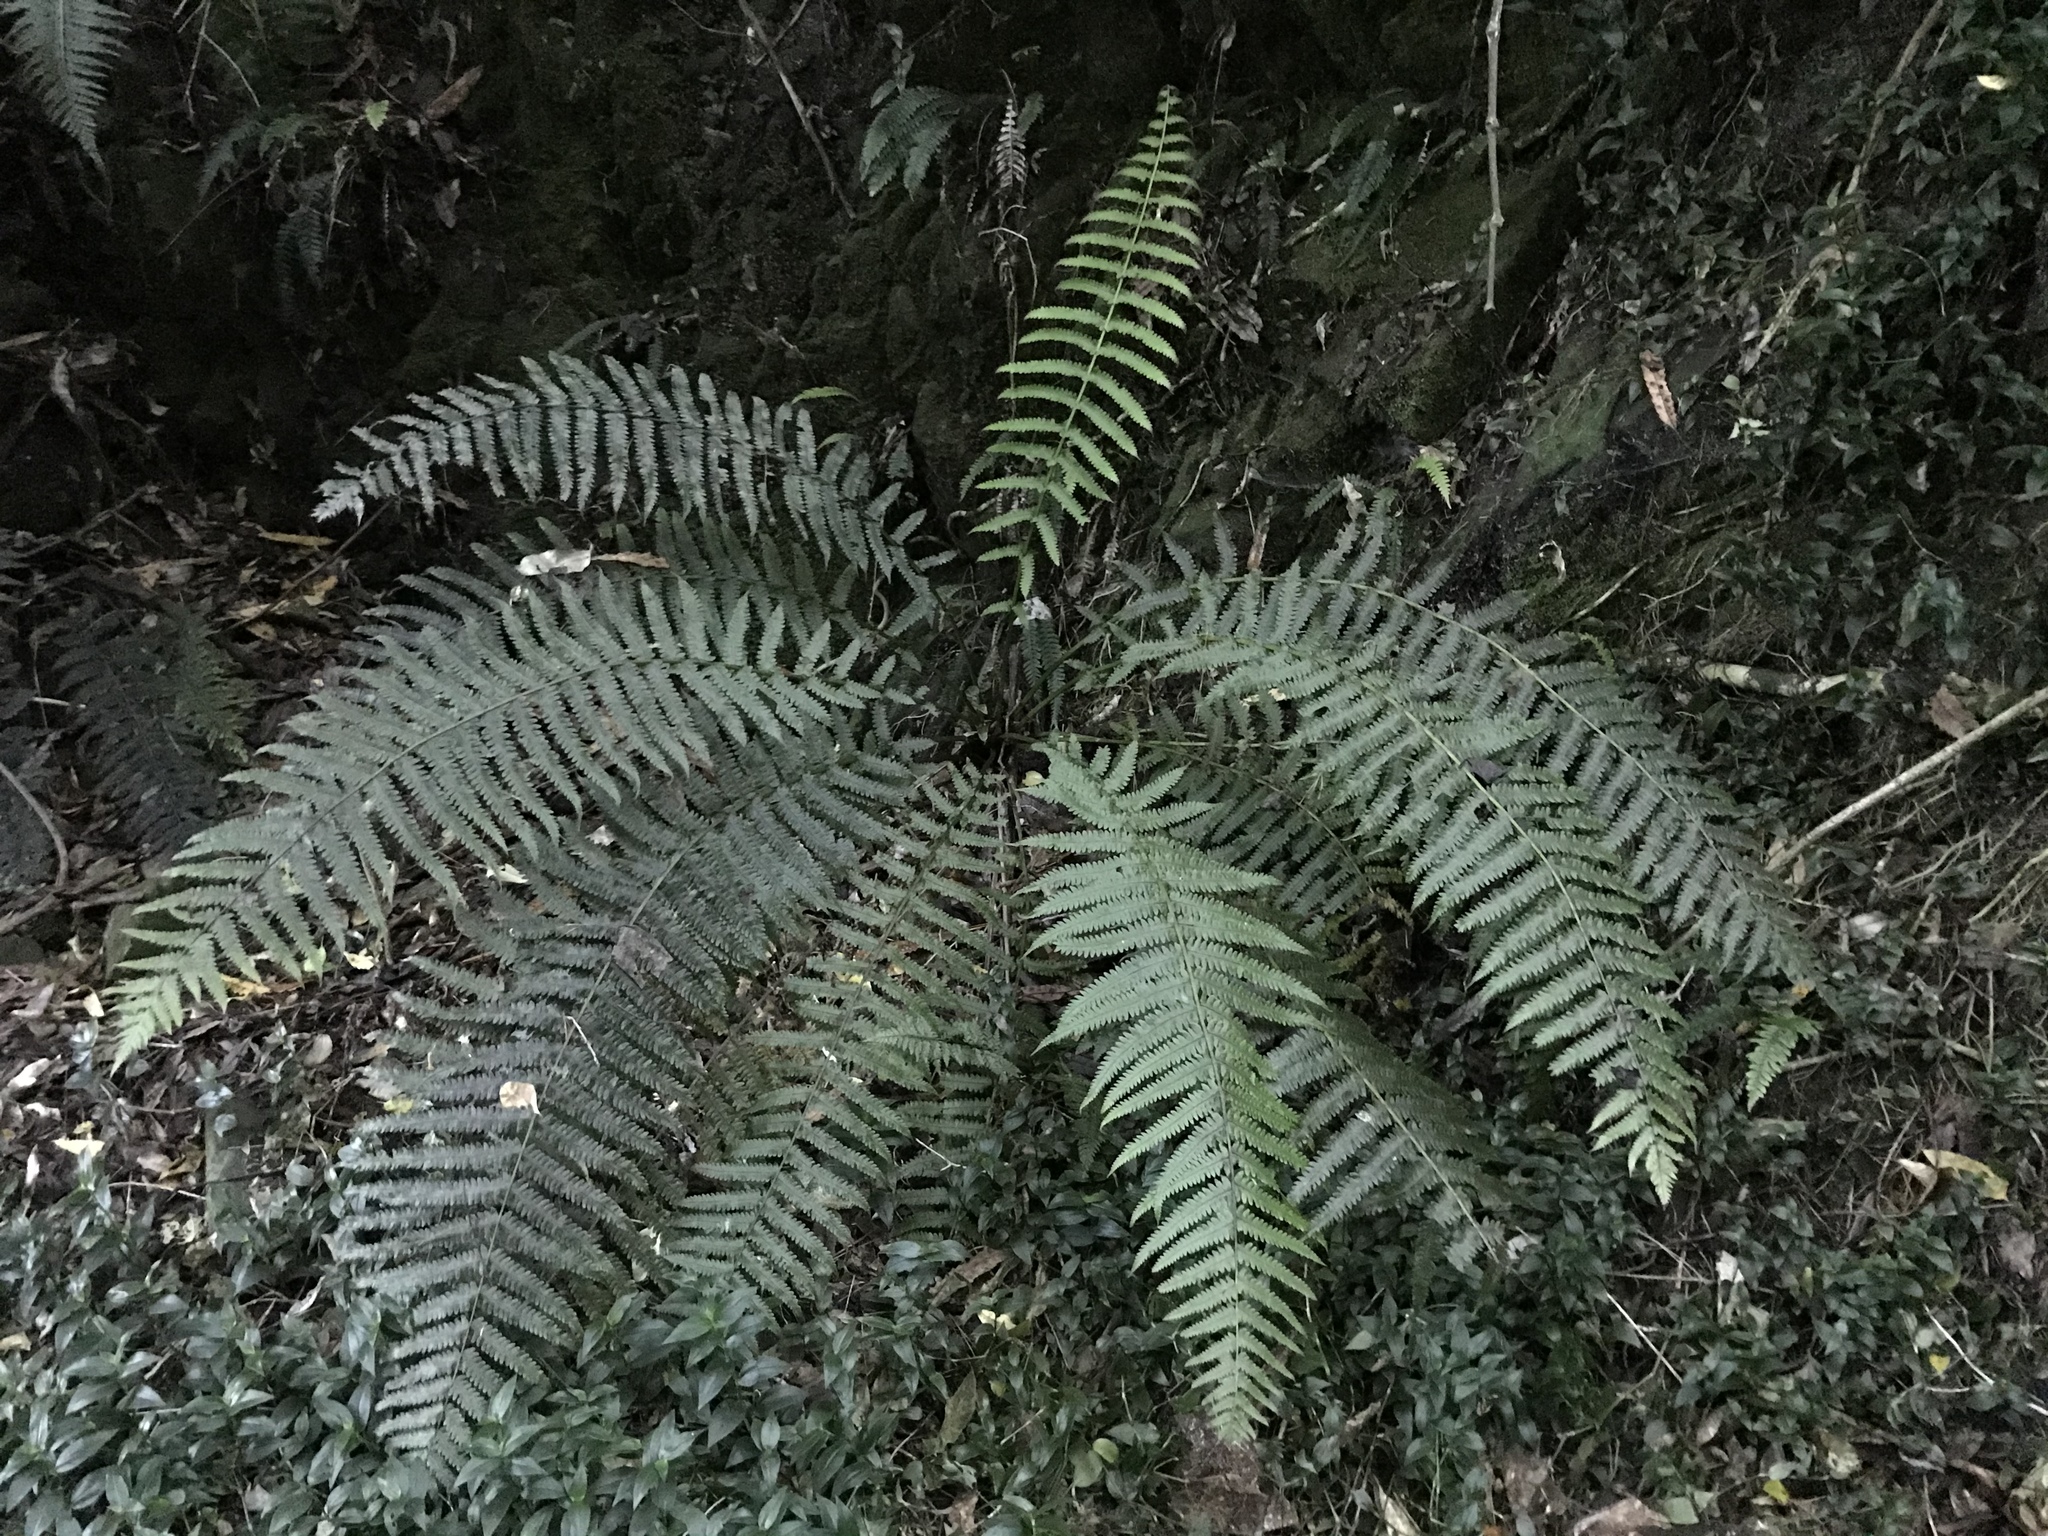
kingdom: Plantae
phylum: Tracheophyta
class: Polypodiopsida
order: Polypodiales
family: Thelypteridaceae
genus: Pakau
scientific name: Pakau pennigera
